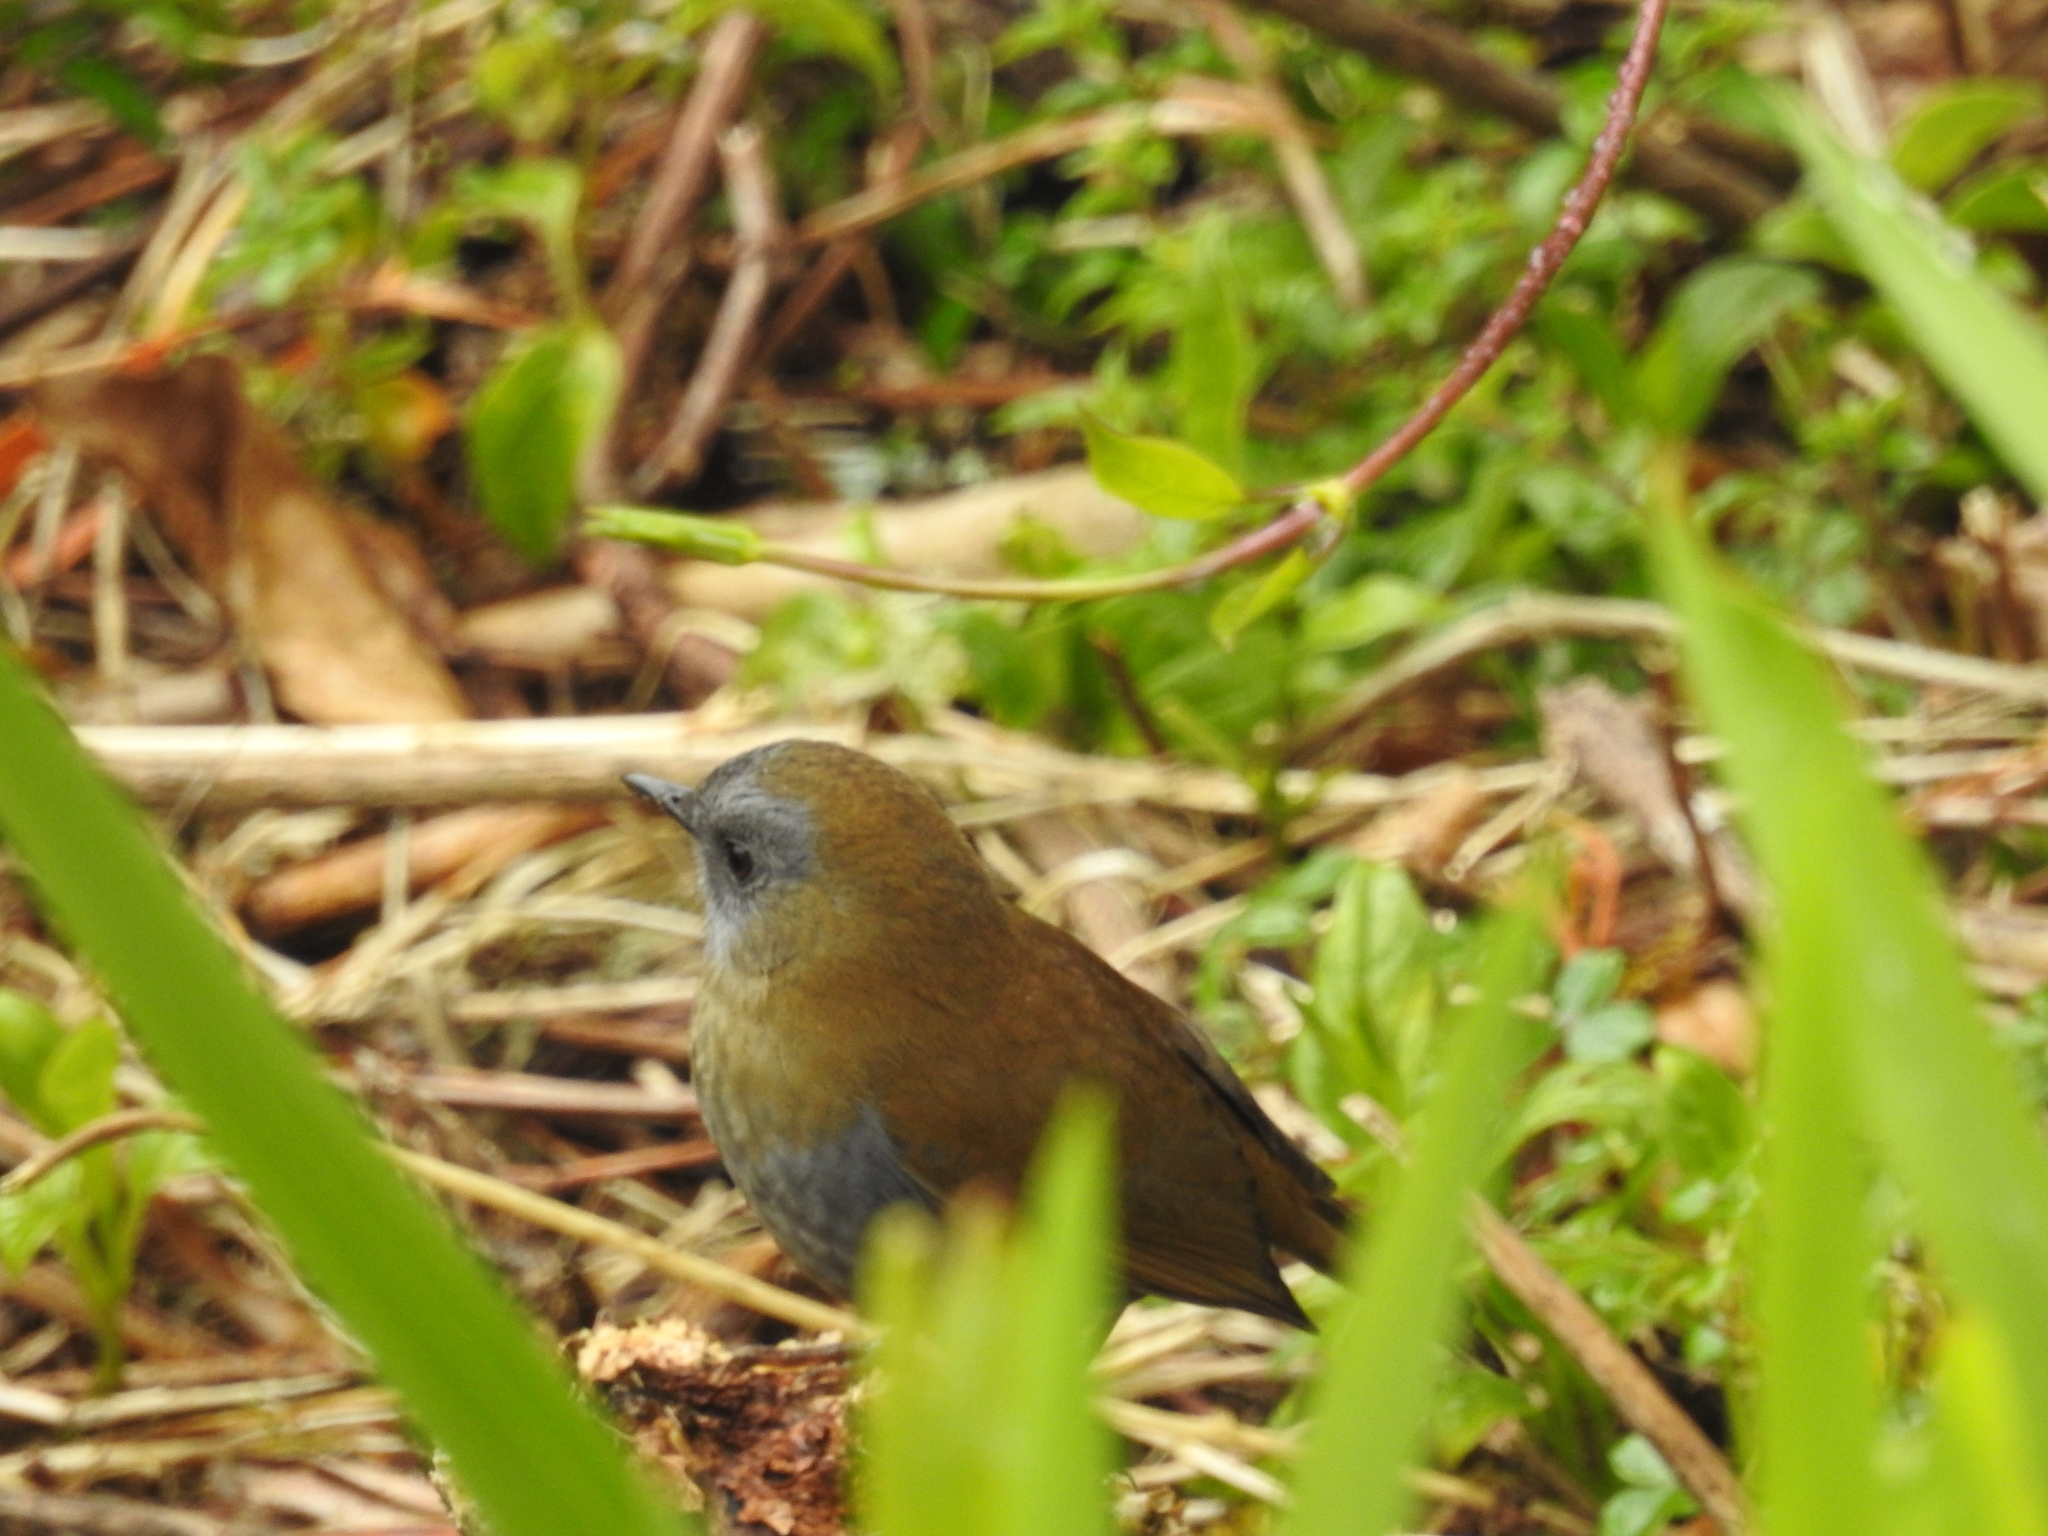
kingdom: Animalia
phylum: Chordata
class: Aves
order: Passeriformes
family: Turdidae
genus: Catharus
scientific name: Catharus gracilirostris
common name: Black-billed nightingale-thrush
